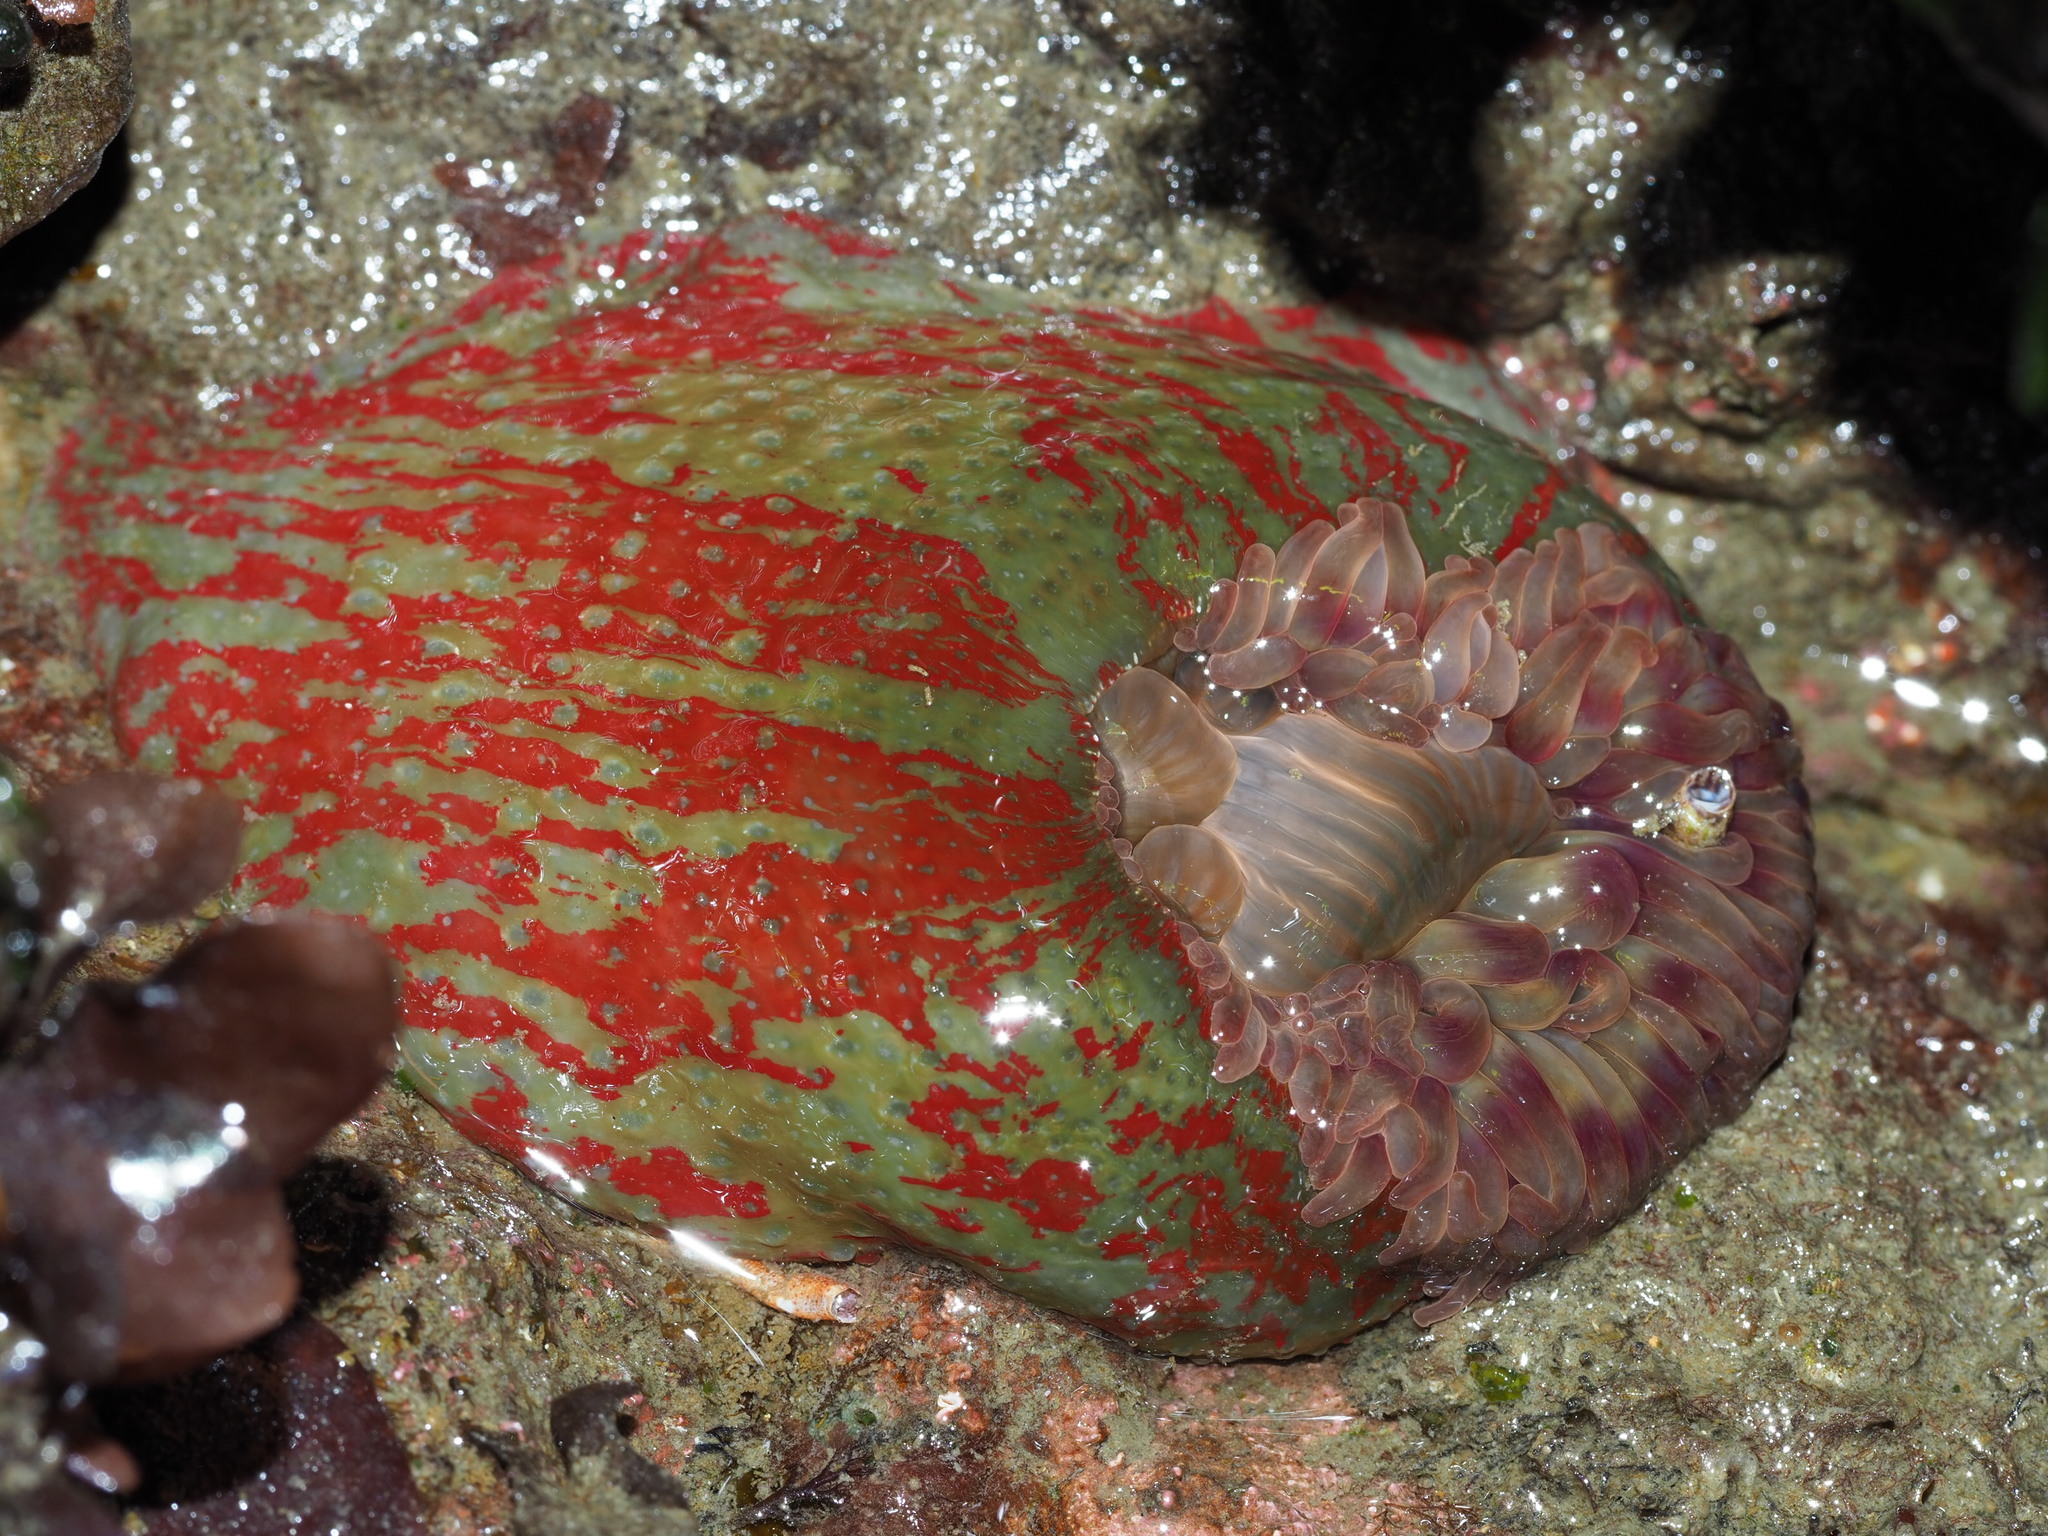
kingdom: Animalia
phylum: Cnidaria
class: Anthozoa
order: Actiniaria
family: Actiniidae
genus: Urticina
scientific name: Urticina grebelnyi
